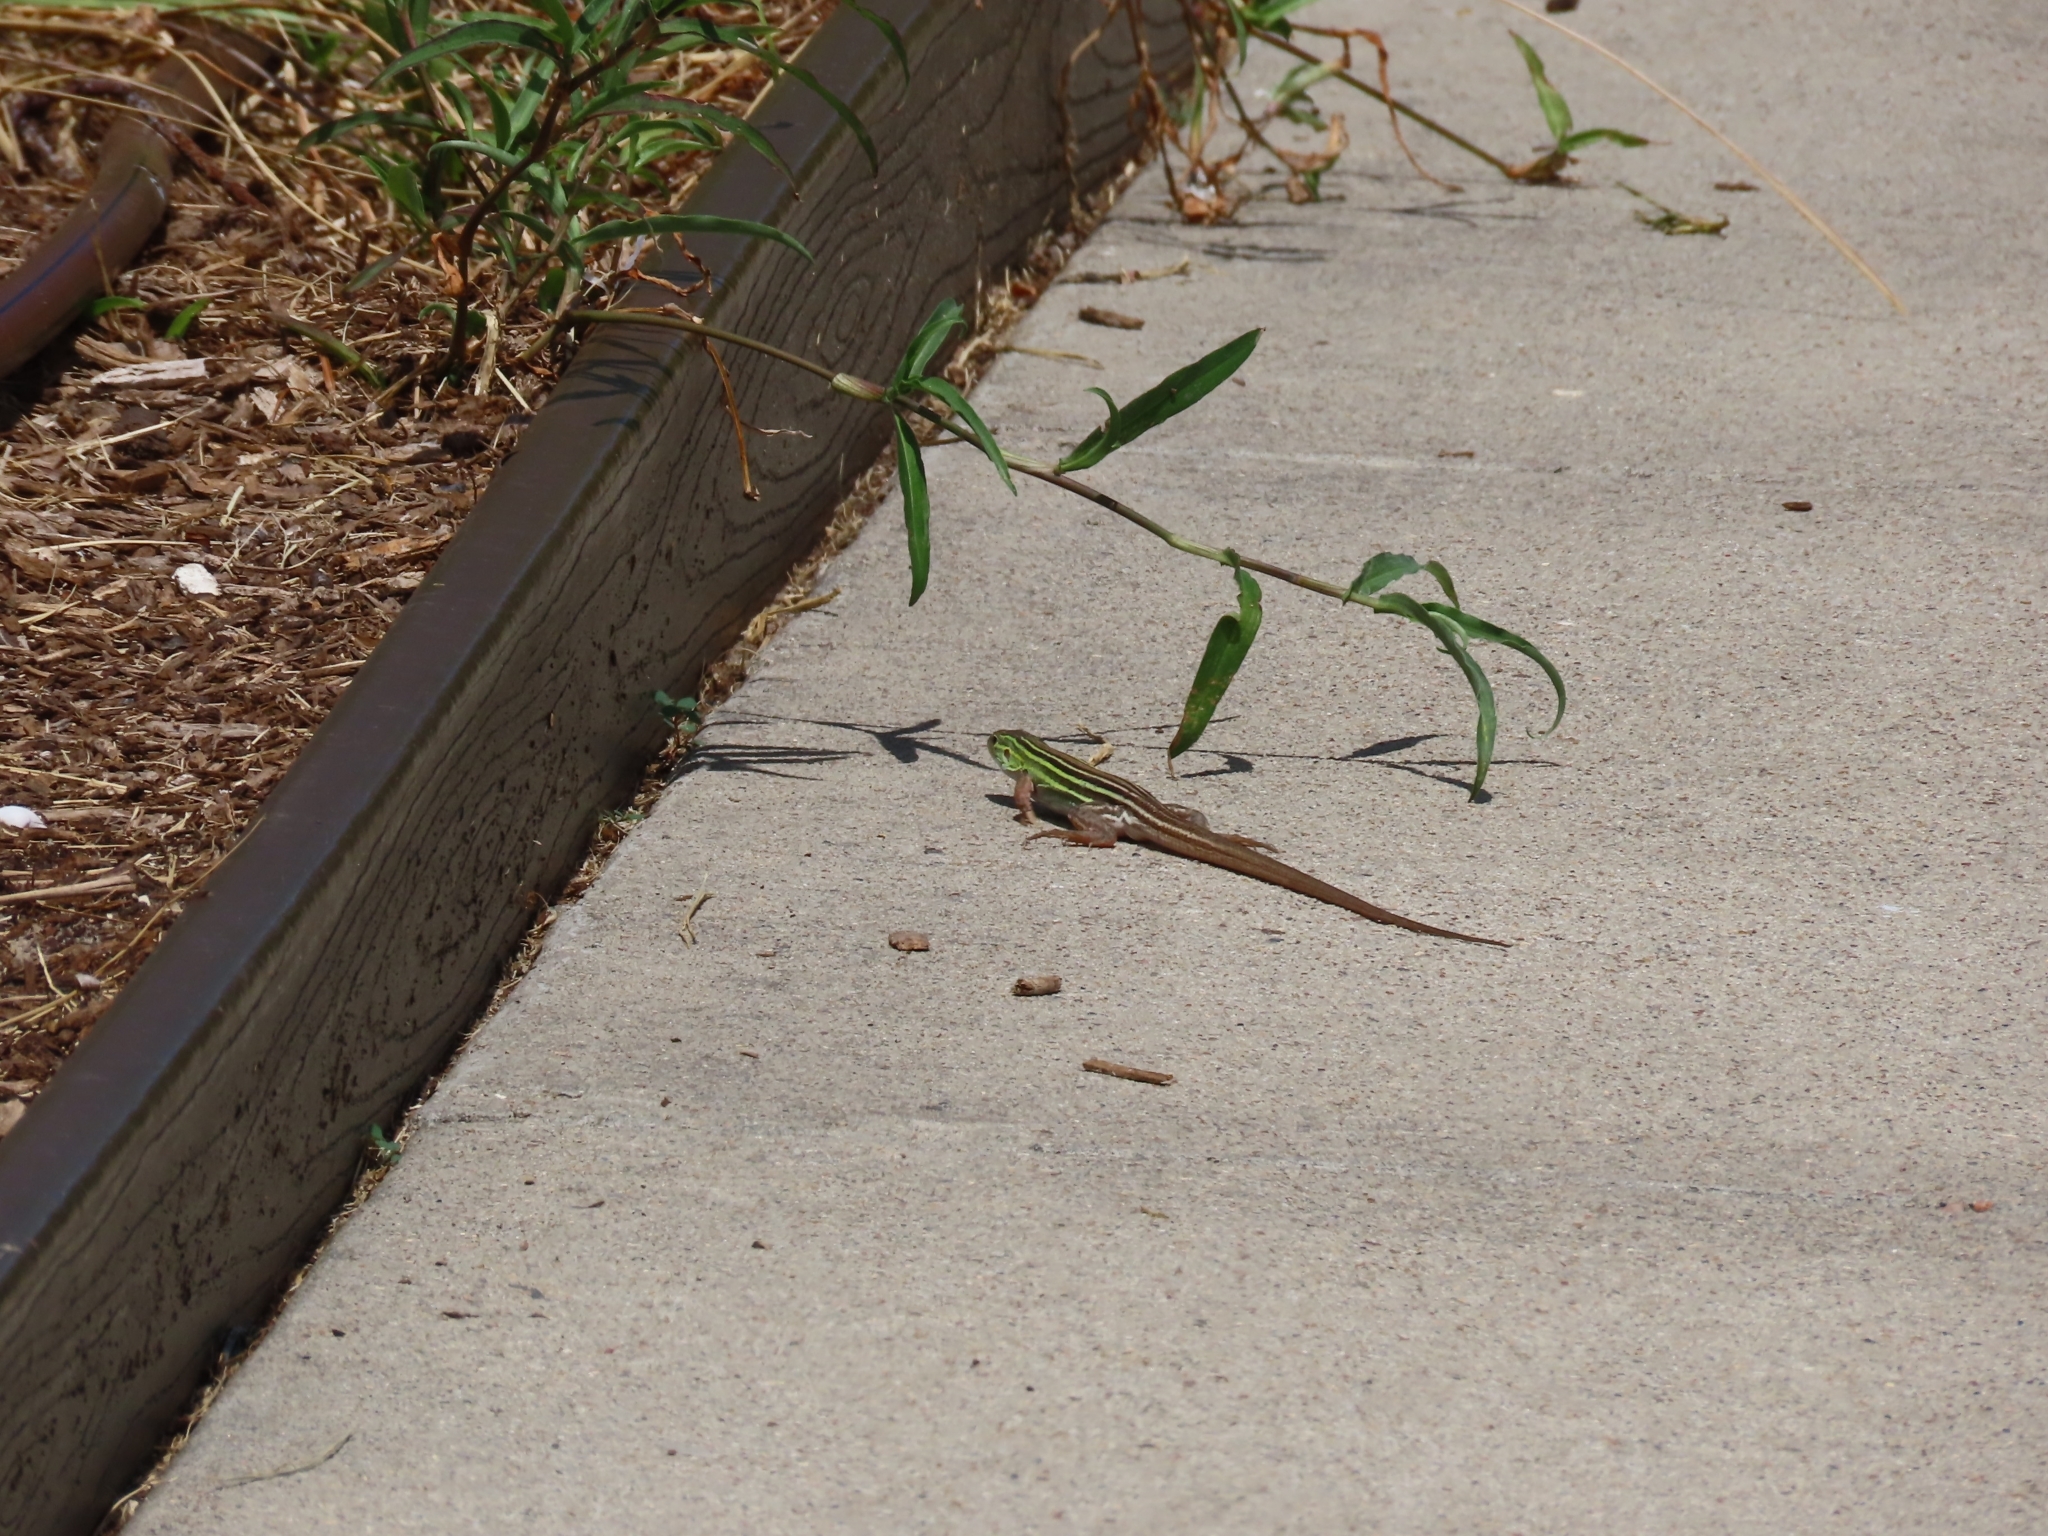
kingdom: Animalia
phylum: Chordata
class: Squamata
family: Teiidae
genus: Aspidoscelis
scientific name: Aspidoscelis sexlineatus
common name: Six-lined racerunner
